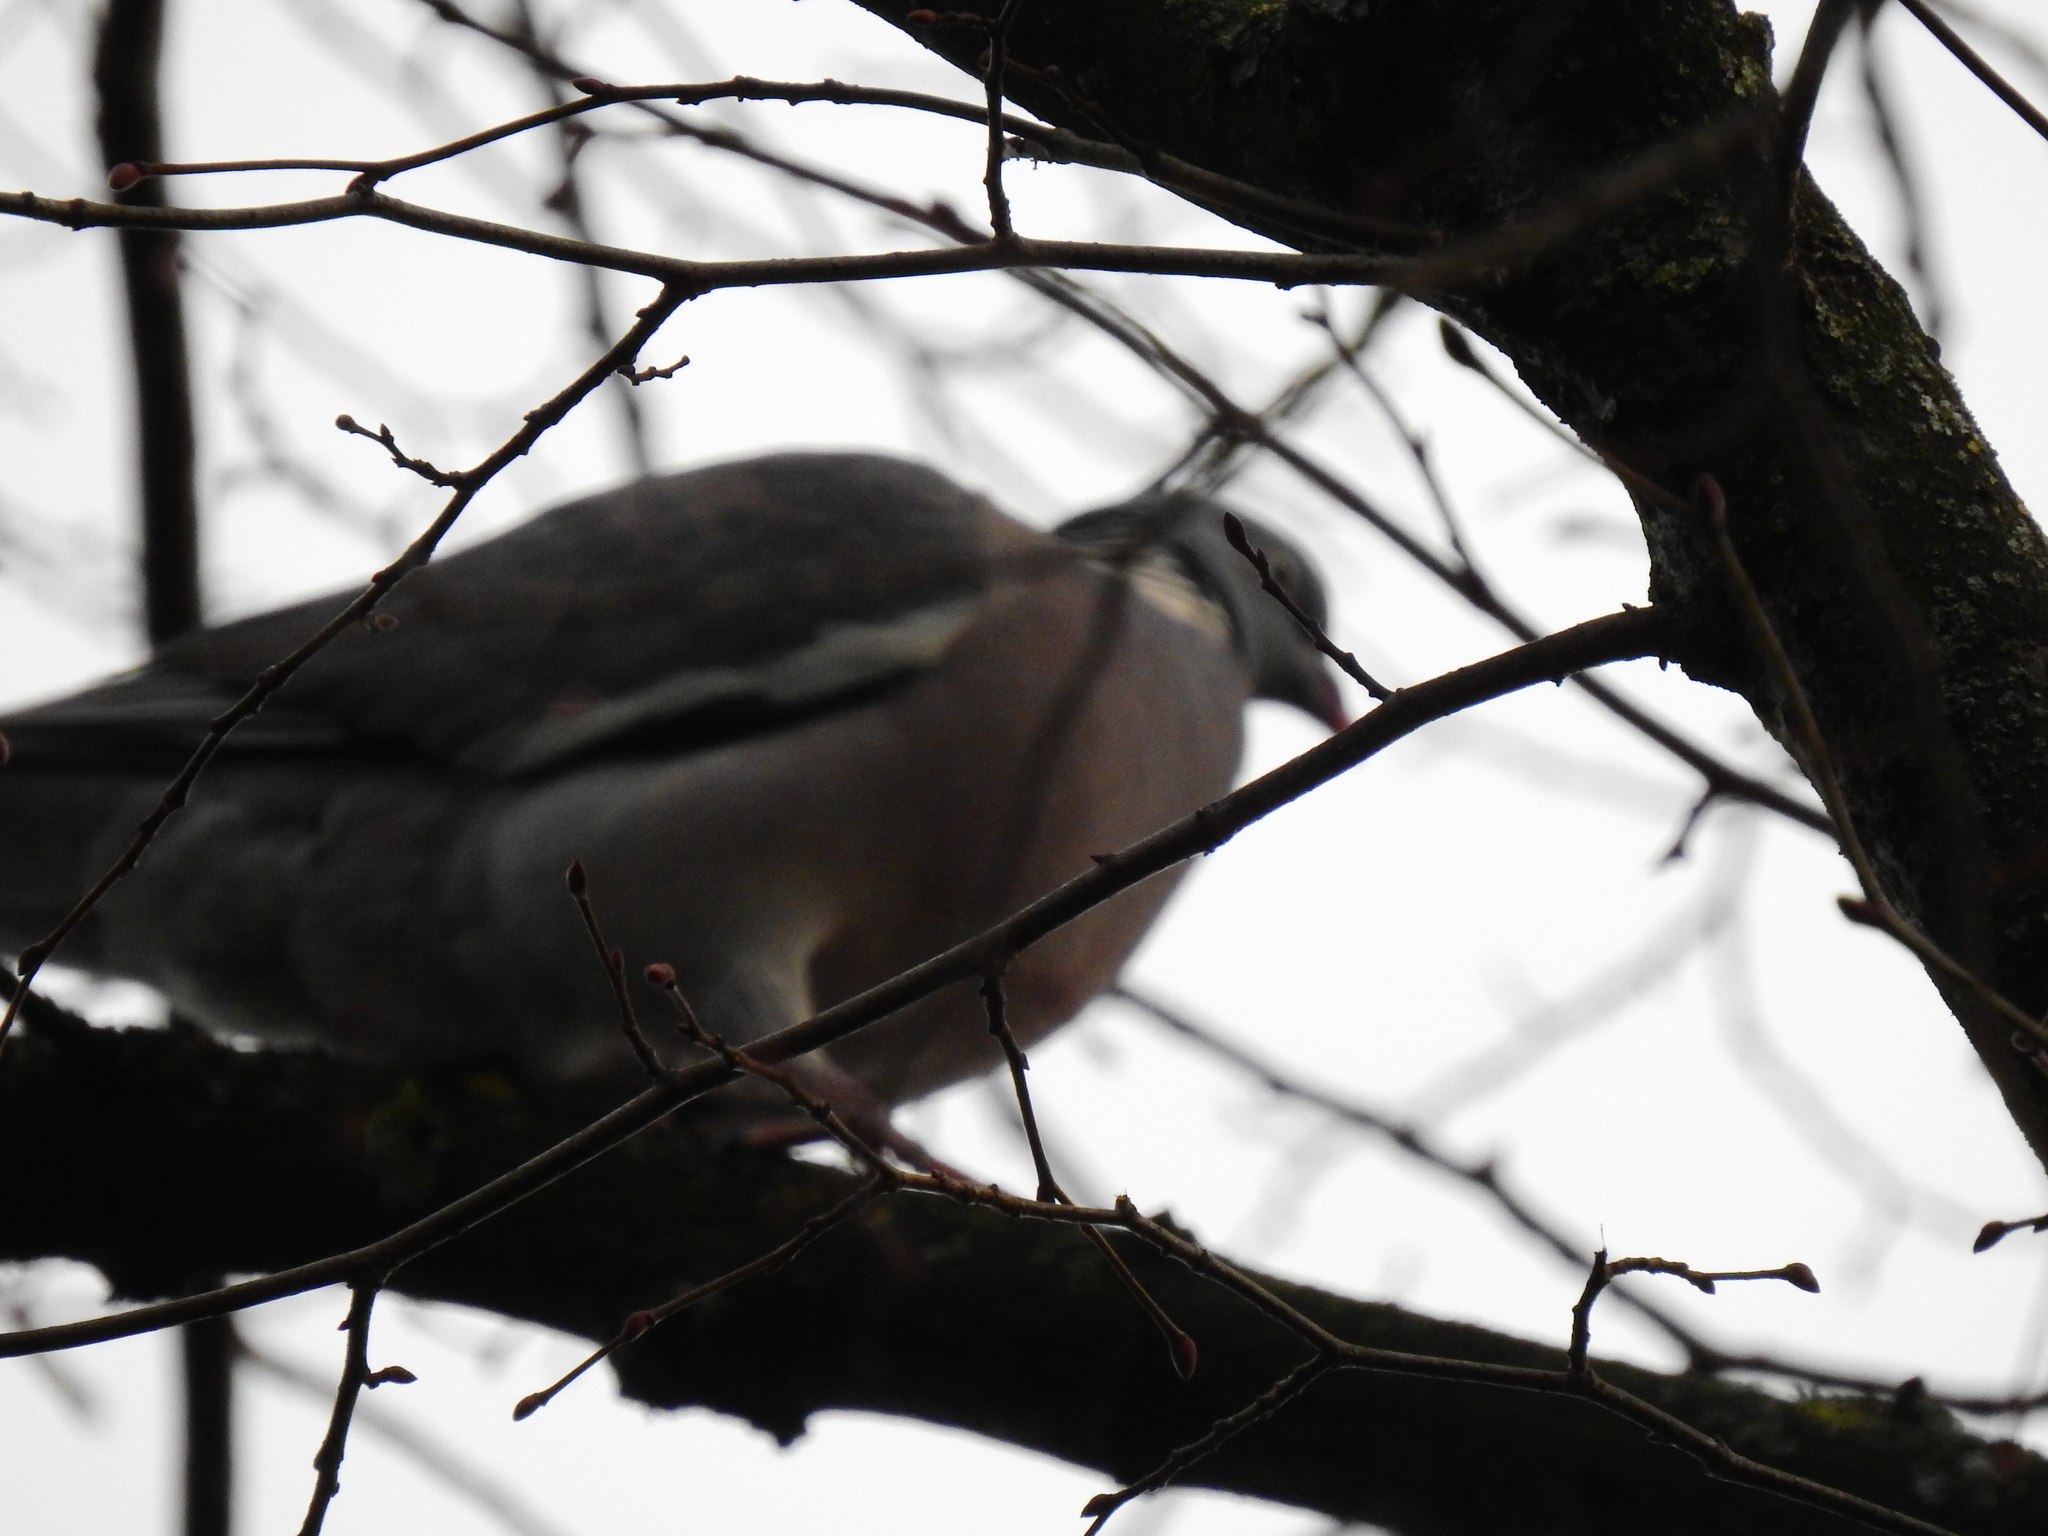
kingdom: Animalia
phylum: Chordata
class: Aves
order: Columbiformes
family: Columbidae
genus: Columba
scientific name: Columba palumbus
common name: Common wood pigeon
